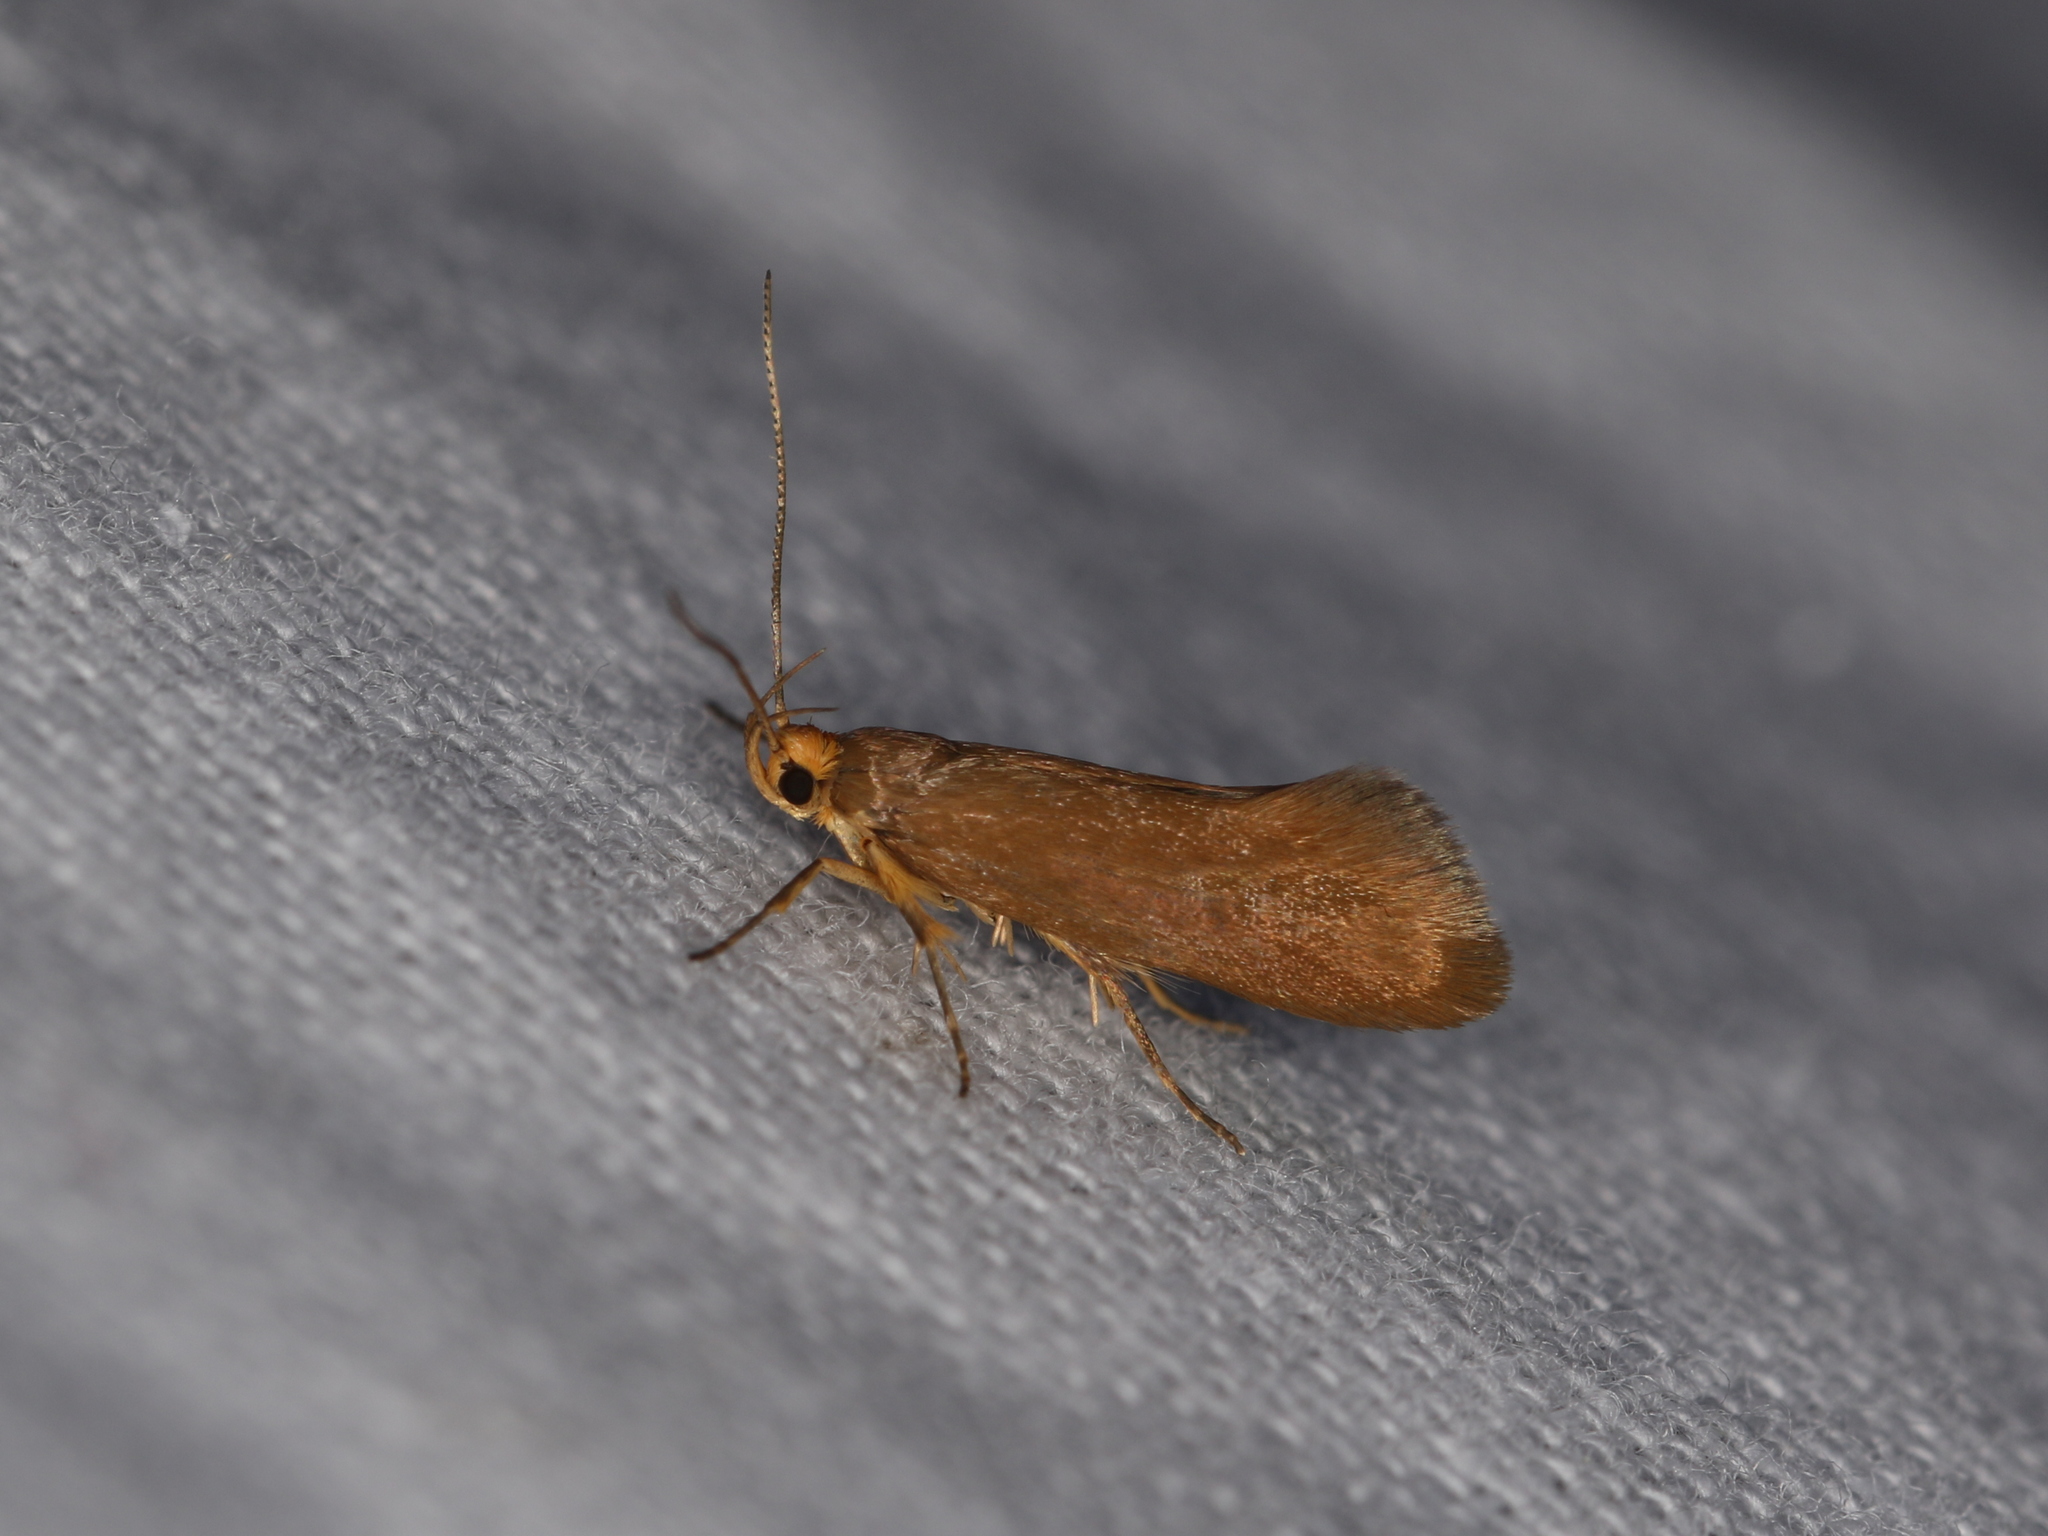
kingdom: Animalia
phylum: Arthropoda
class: Insecta
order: Lepidoptera
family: Oecophoridae
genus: Borkhausenia
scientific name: Borkhausenia Crassa unitella
